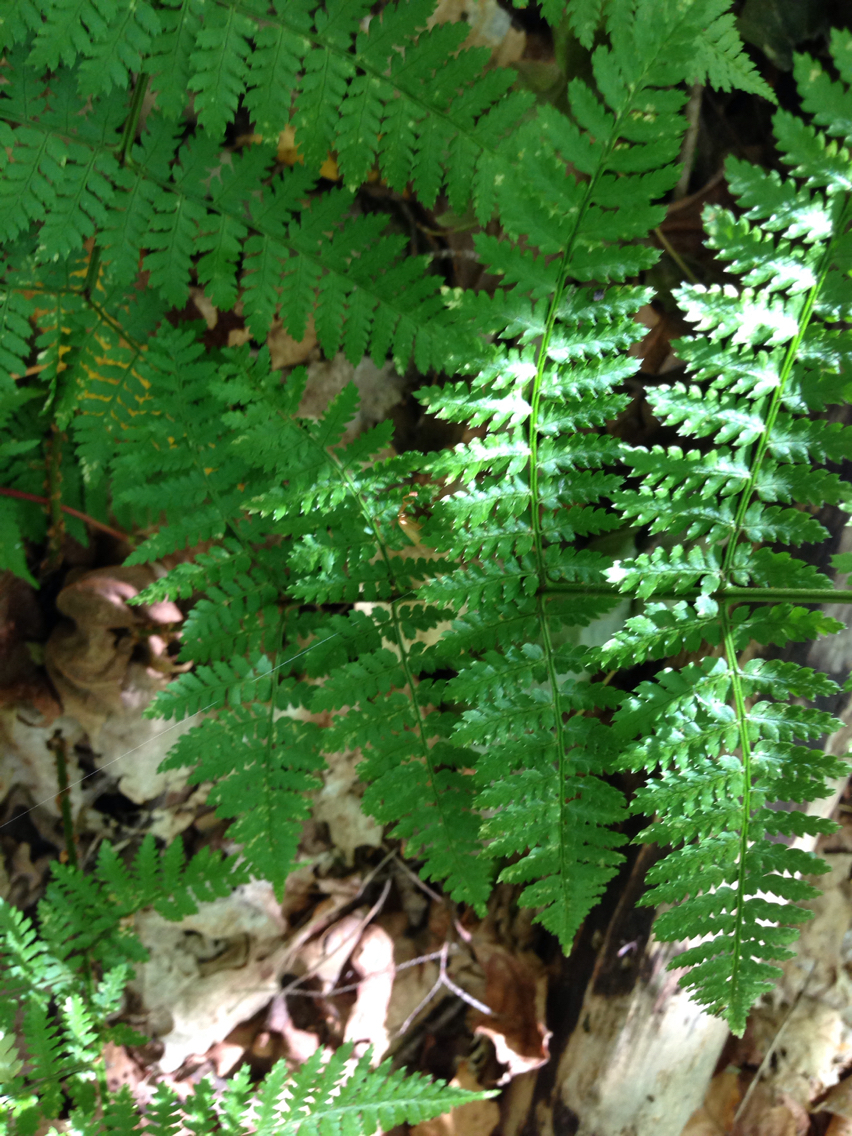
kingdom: Plantae
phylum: Tracheophyta
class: Polypodiopsida
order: Polypodiales
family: Dryopteridaceae
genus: Dryopteris
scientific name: Dryopteris intermedia
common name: Evergreen wood fern
